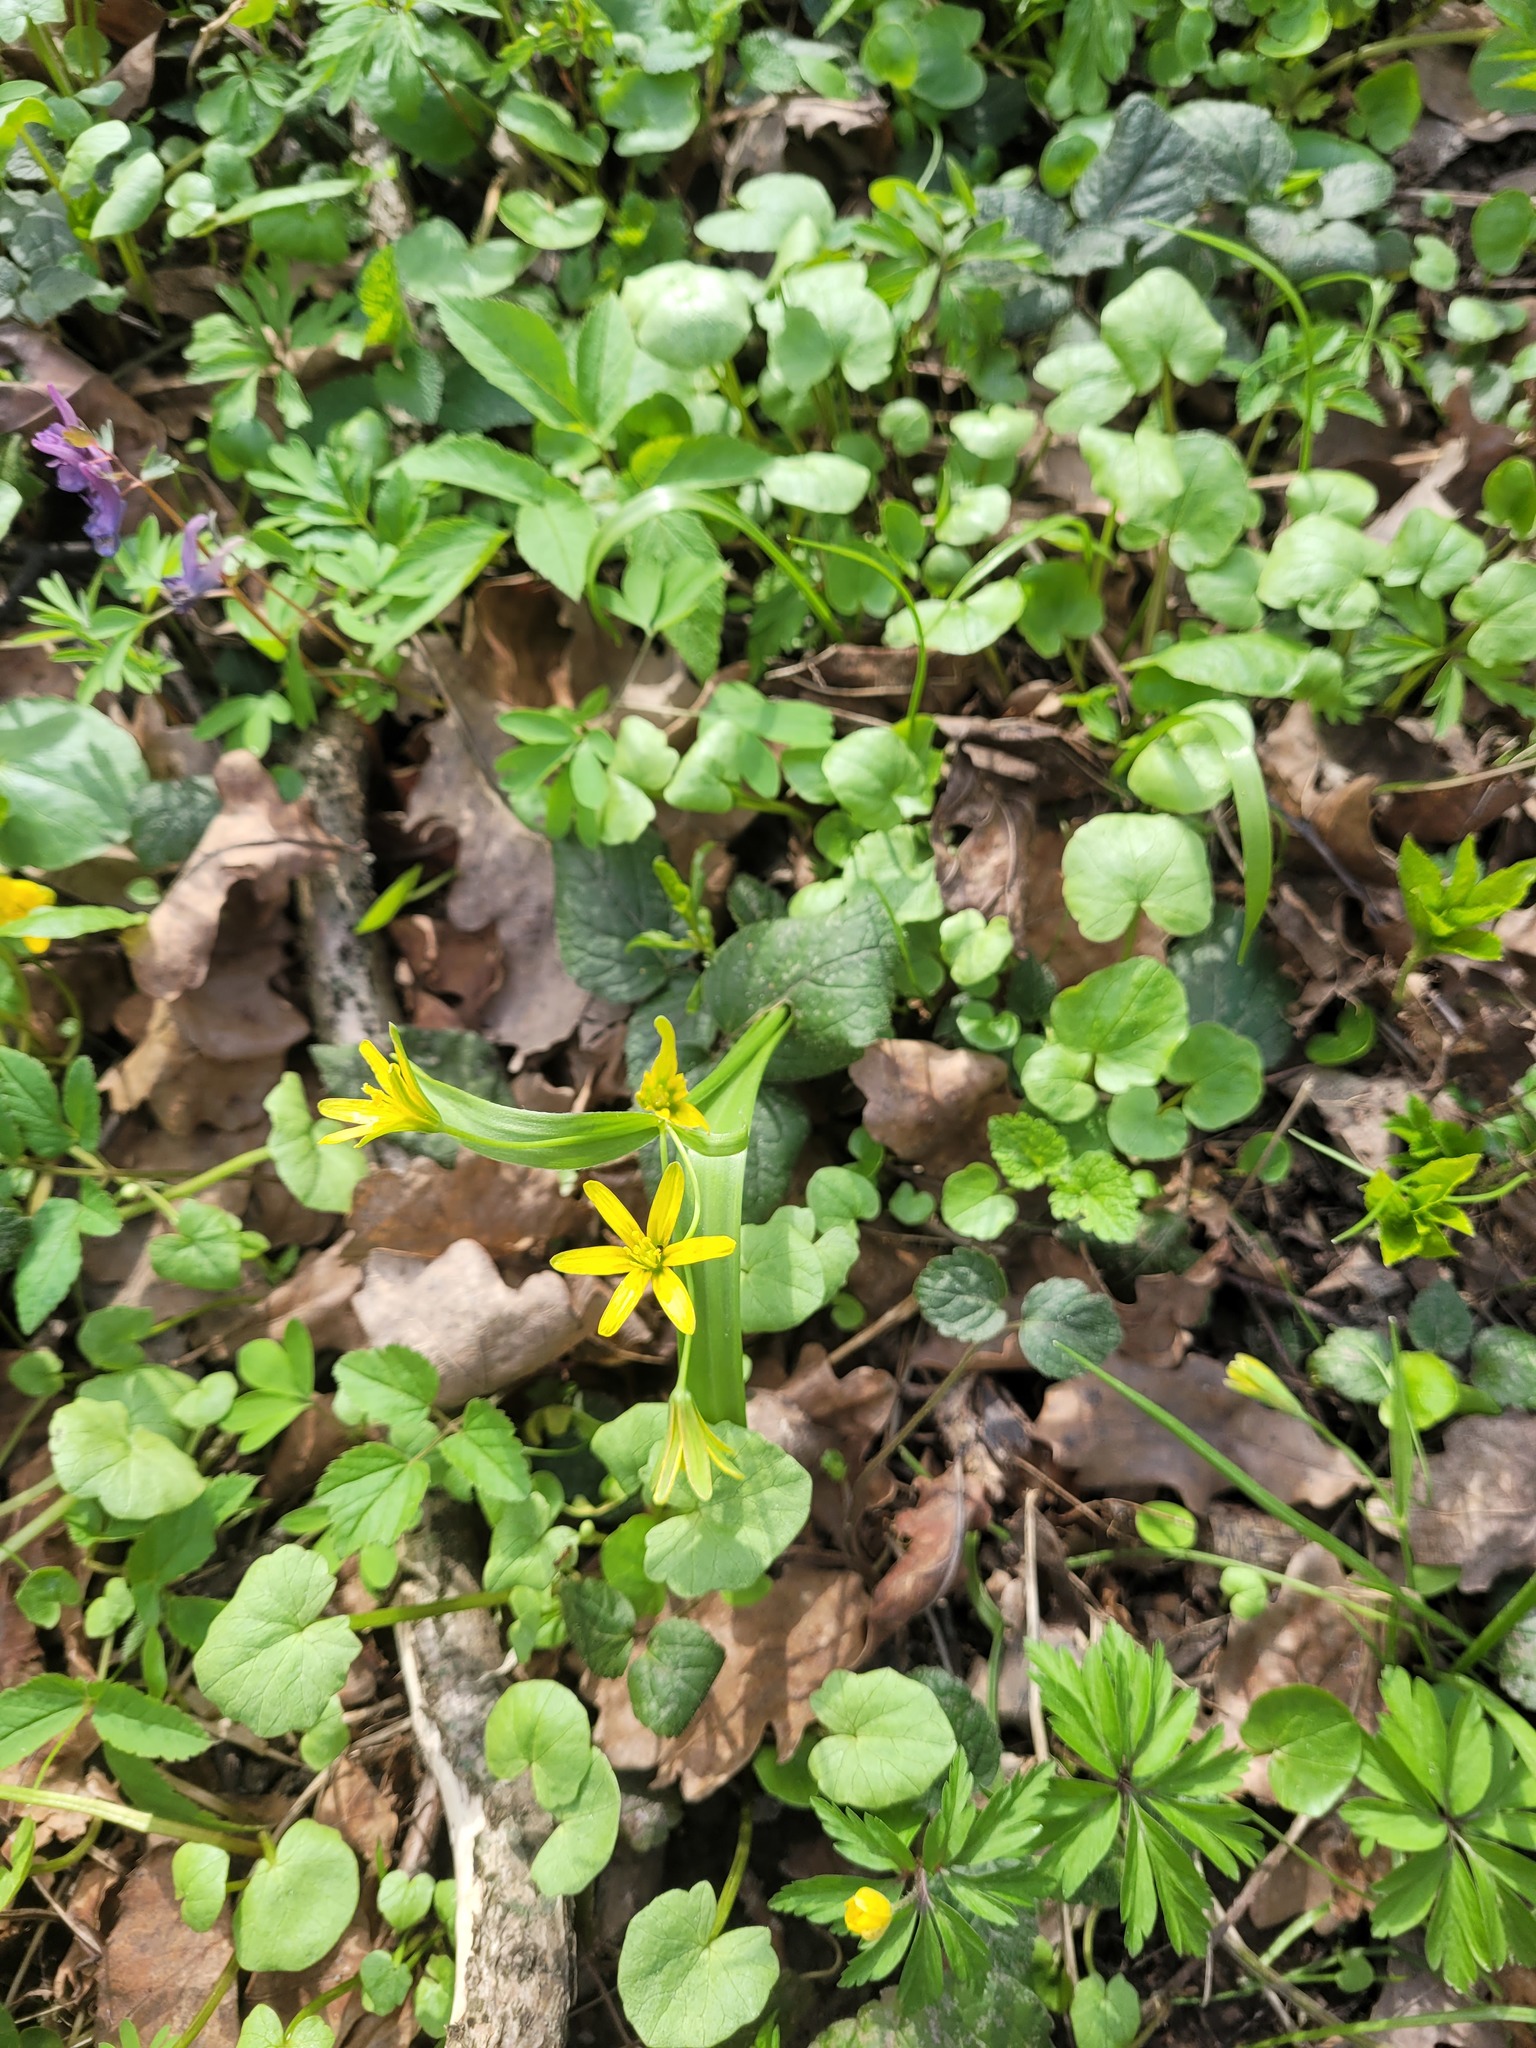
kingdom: Plantae
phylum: Tracheophyta
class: Liliopsida
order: Liliales
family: Liliaceae
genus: Gagea
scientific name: Gagea lutea
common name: Yellow star-of-bethlehem
